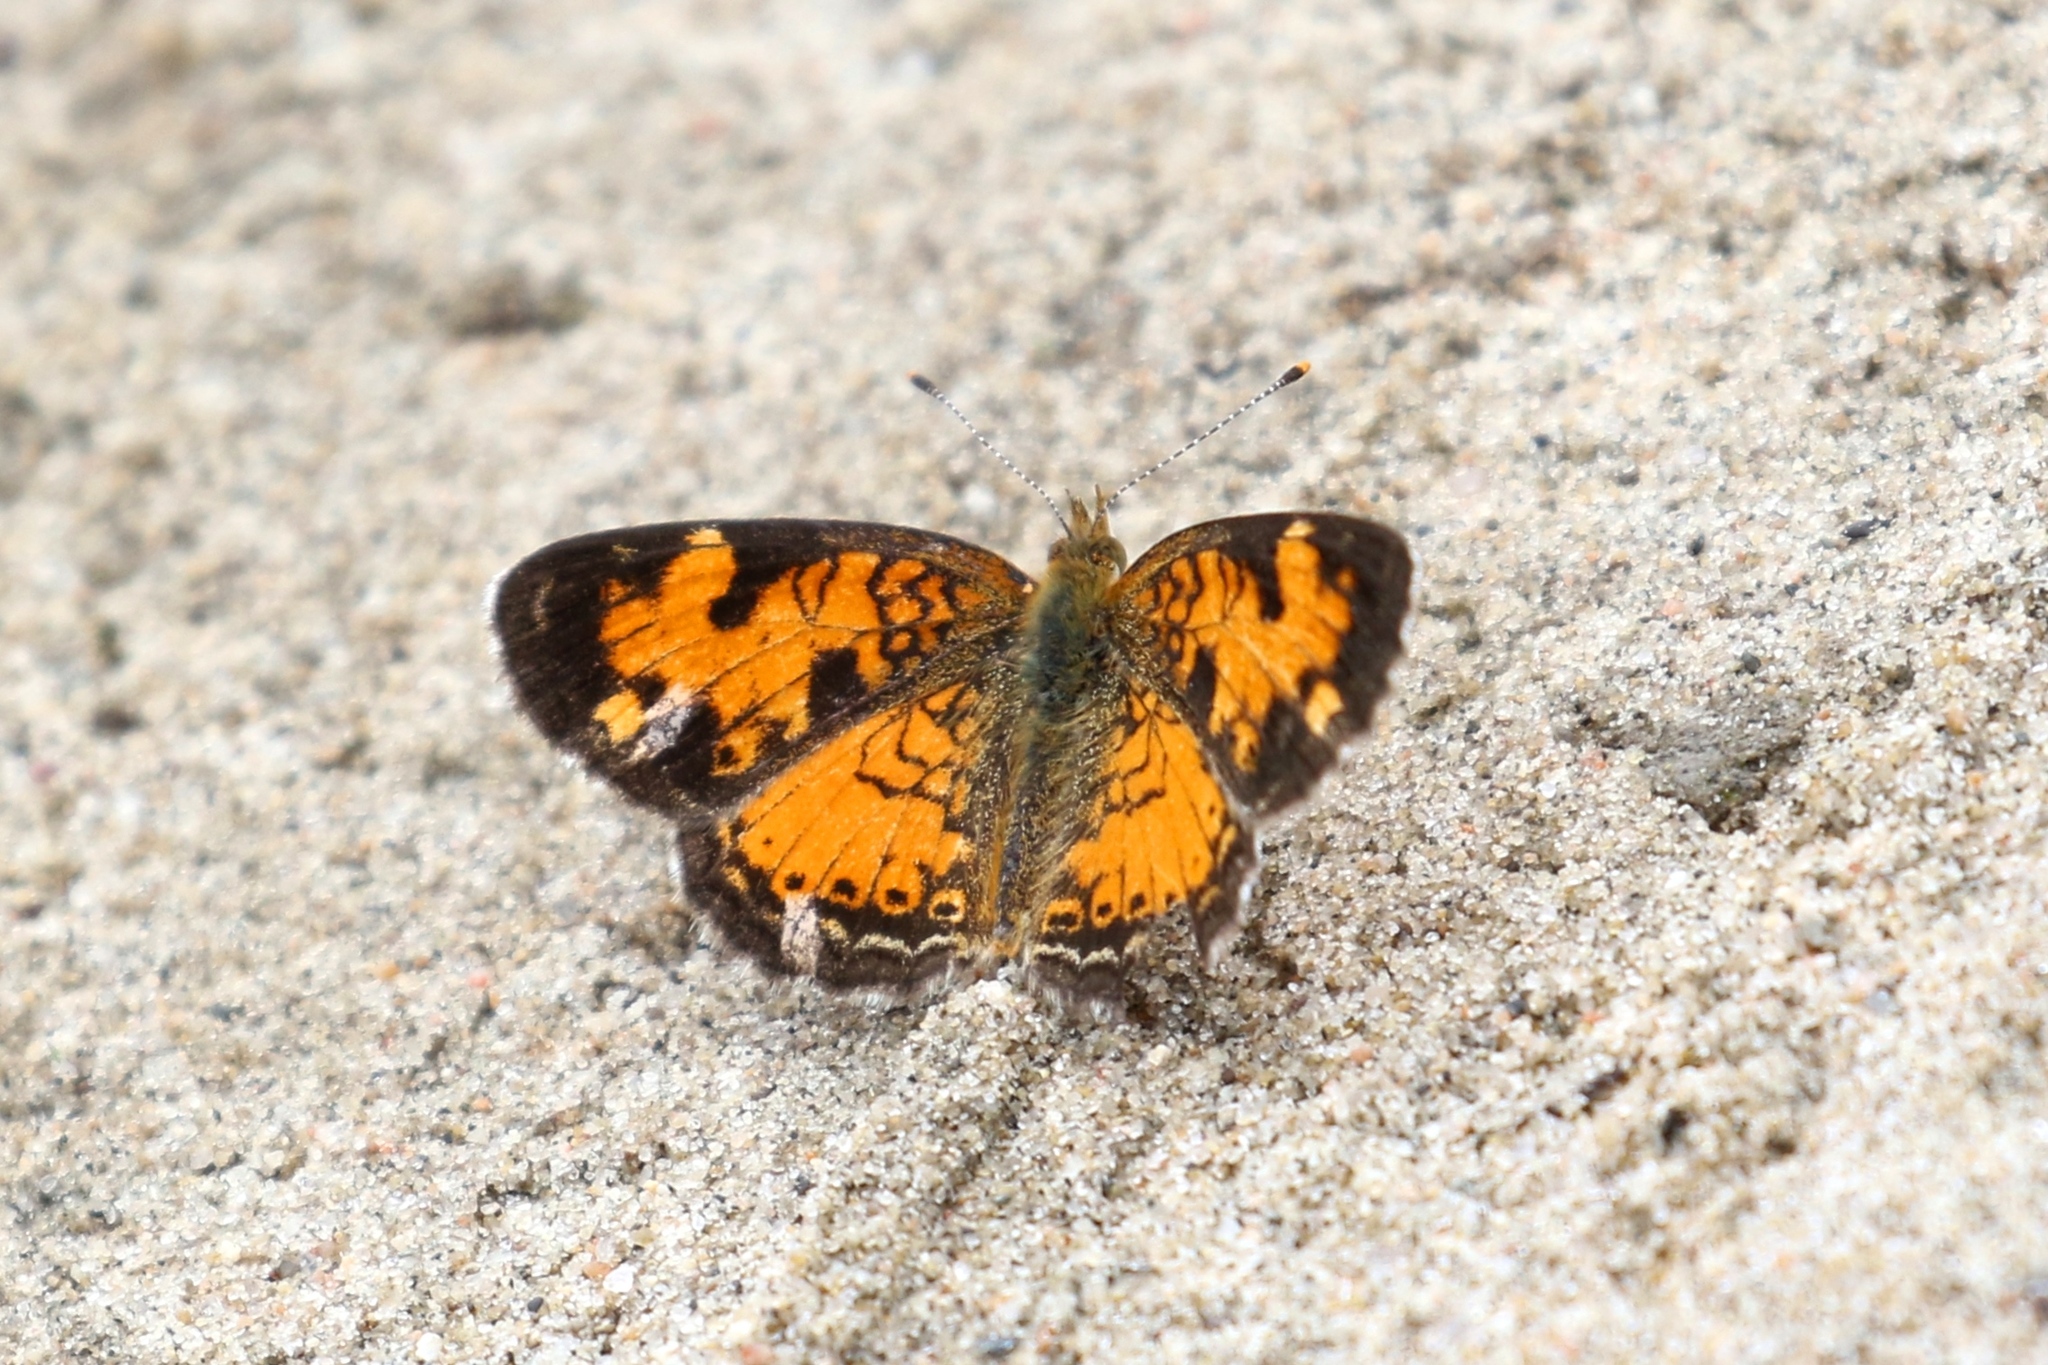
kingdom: Animalia
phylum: Arthropoda
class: Insecta
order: Lepidoptera
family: Nymphalidae
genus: Phyciodes
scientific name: Phyciodes tharos
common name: Pearl crescent
